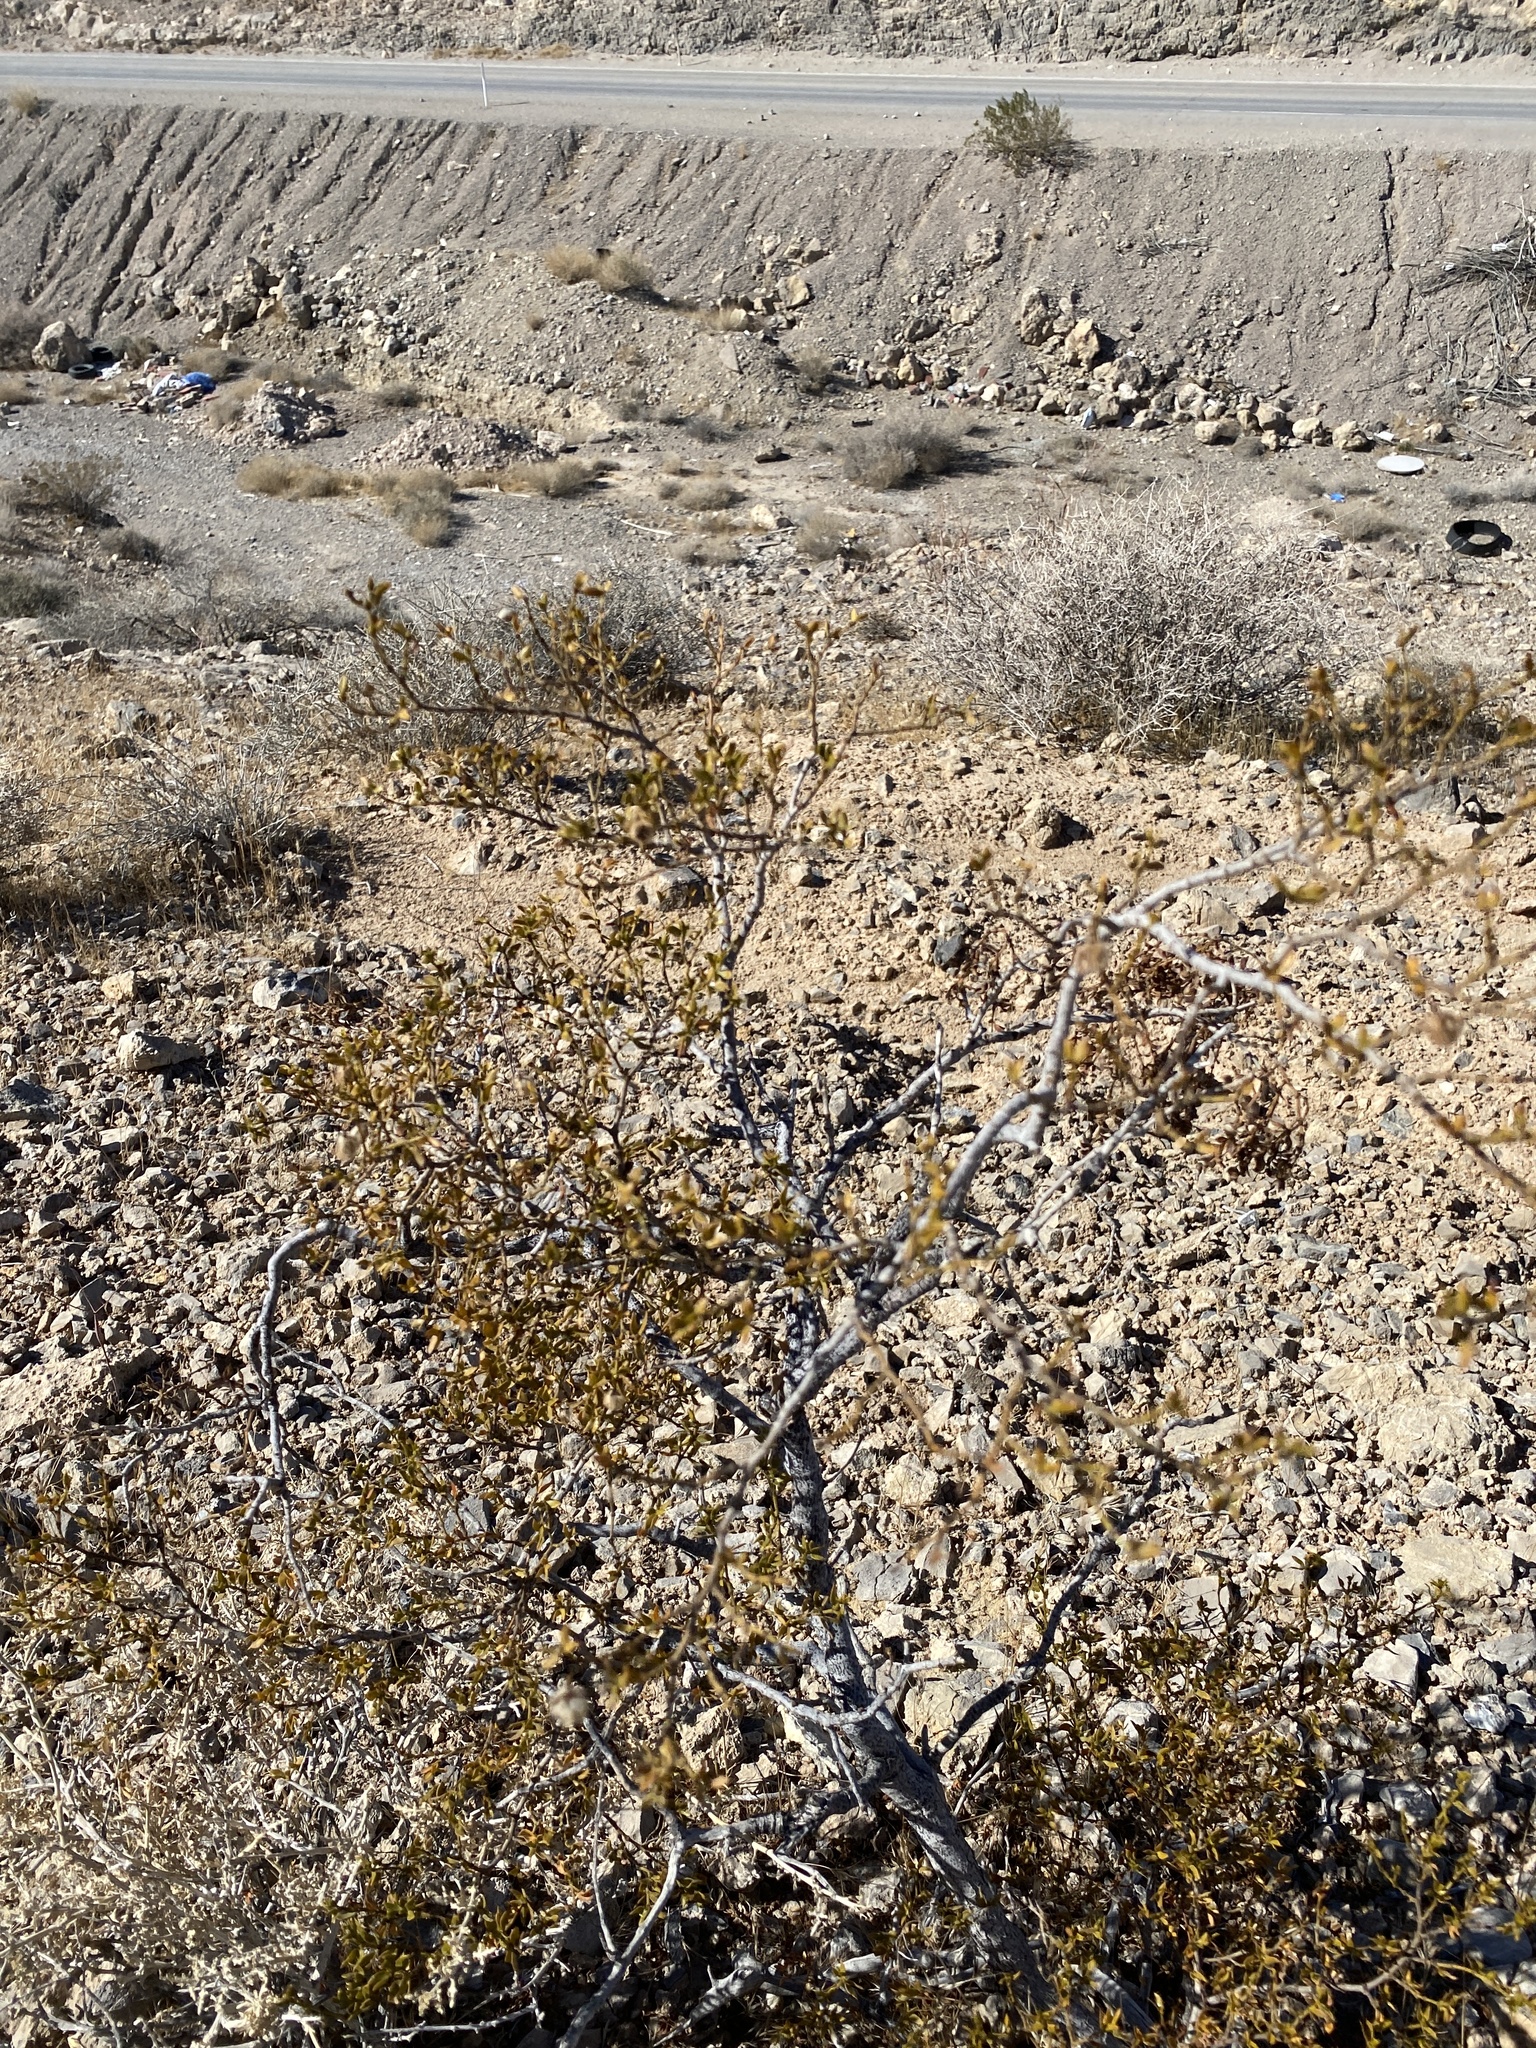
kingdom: Plantae
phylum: Tracheophyta
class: Magnoliopsida
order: Zygophyllales
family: Zygophyllaceae
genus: Larrea
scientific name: Larrea tridentata
